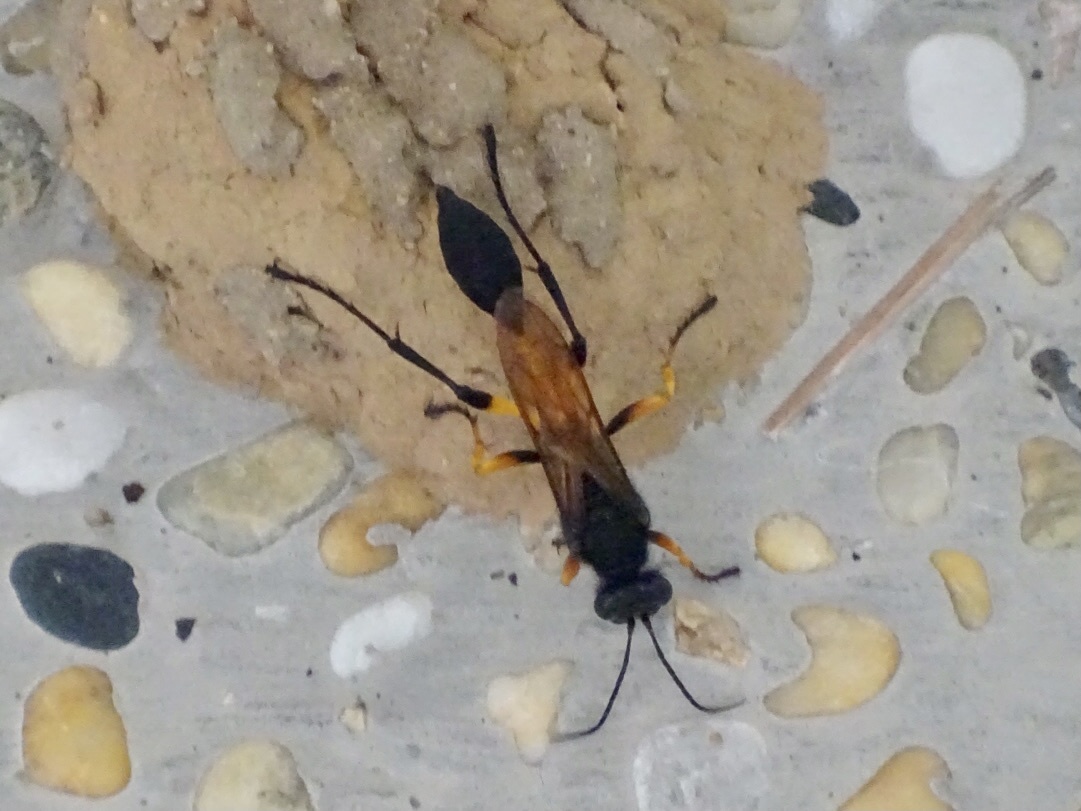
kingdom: Animalia
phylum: Arthropoda
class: Insecta
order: Hymenoptera
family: Sphecidae
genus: Sceliphron
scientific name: Sceliphron javanum
